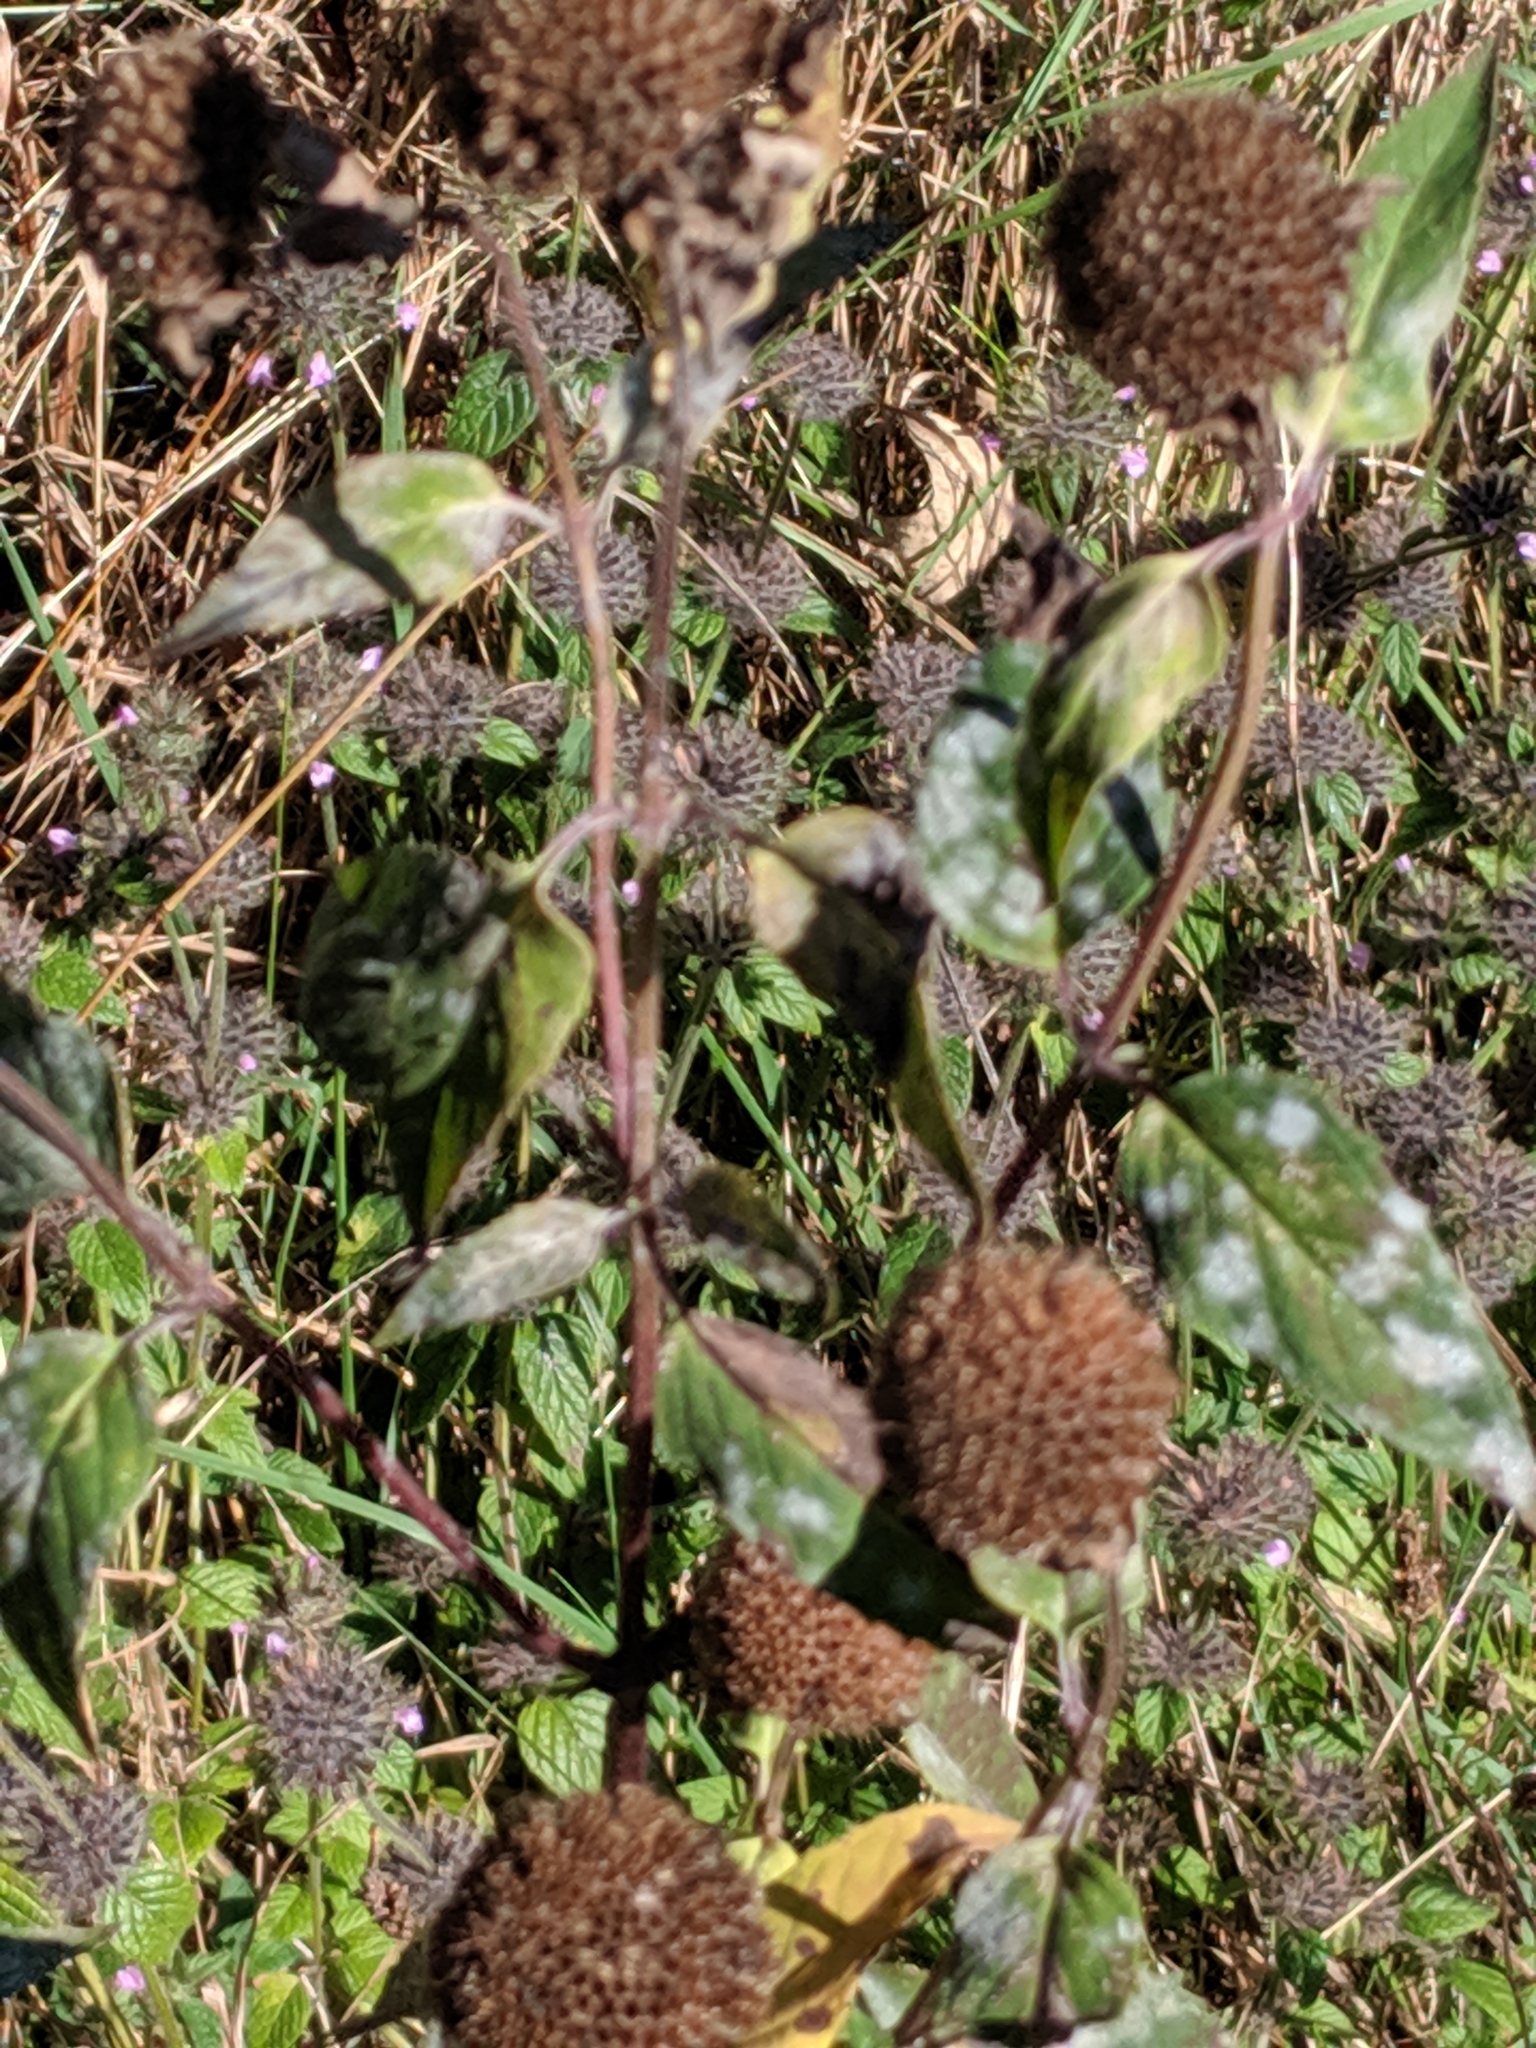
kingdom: Plantae
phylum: Tracheophyta
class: Magnoliopsida
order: Lamiales
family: Lamiaceae
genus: Monarda
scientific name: Monarda fistulosa
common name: Purple beebalm
